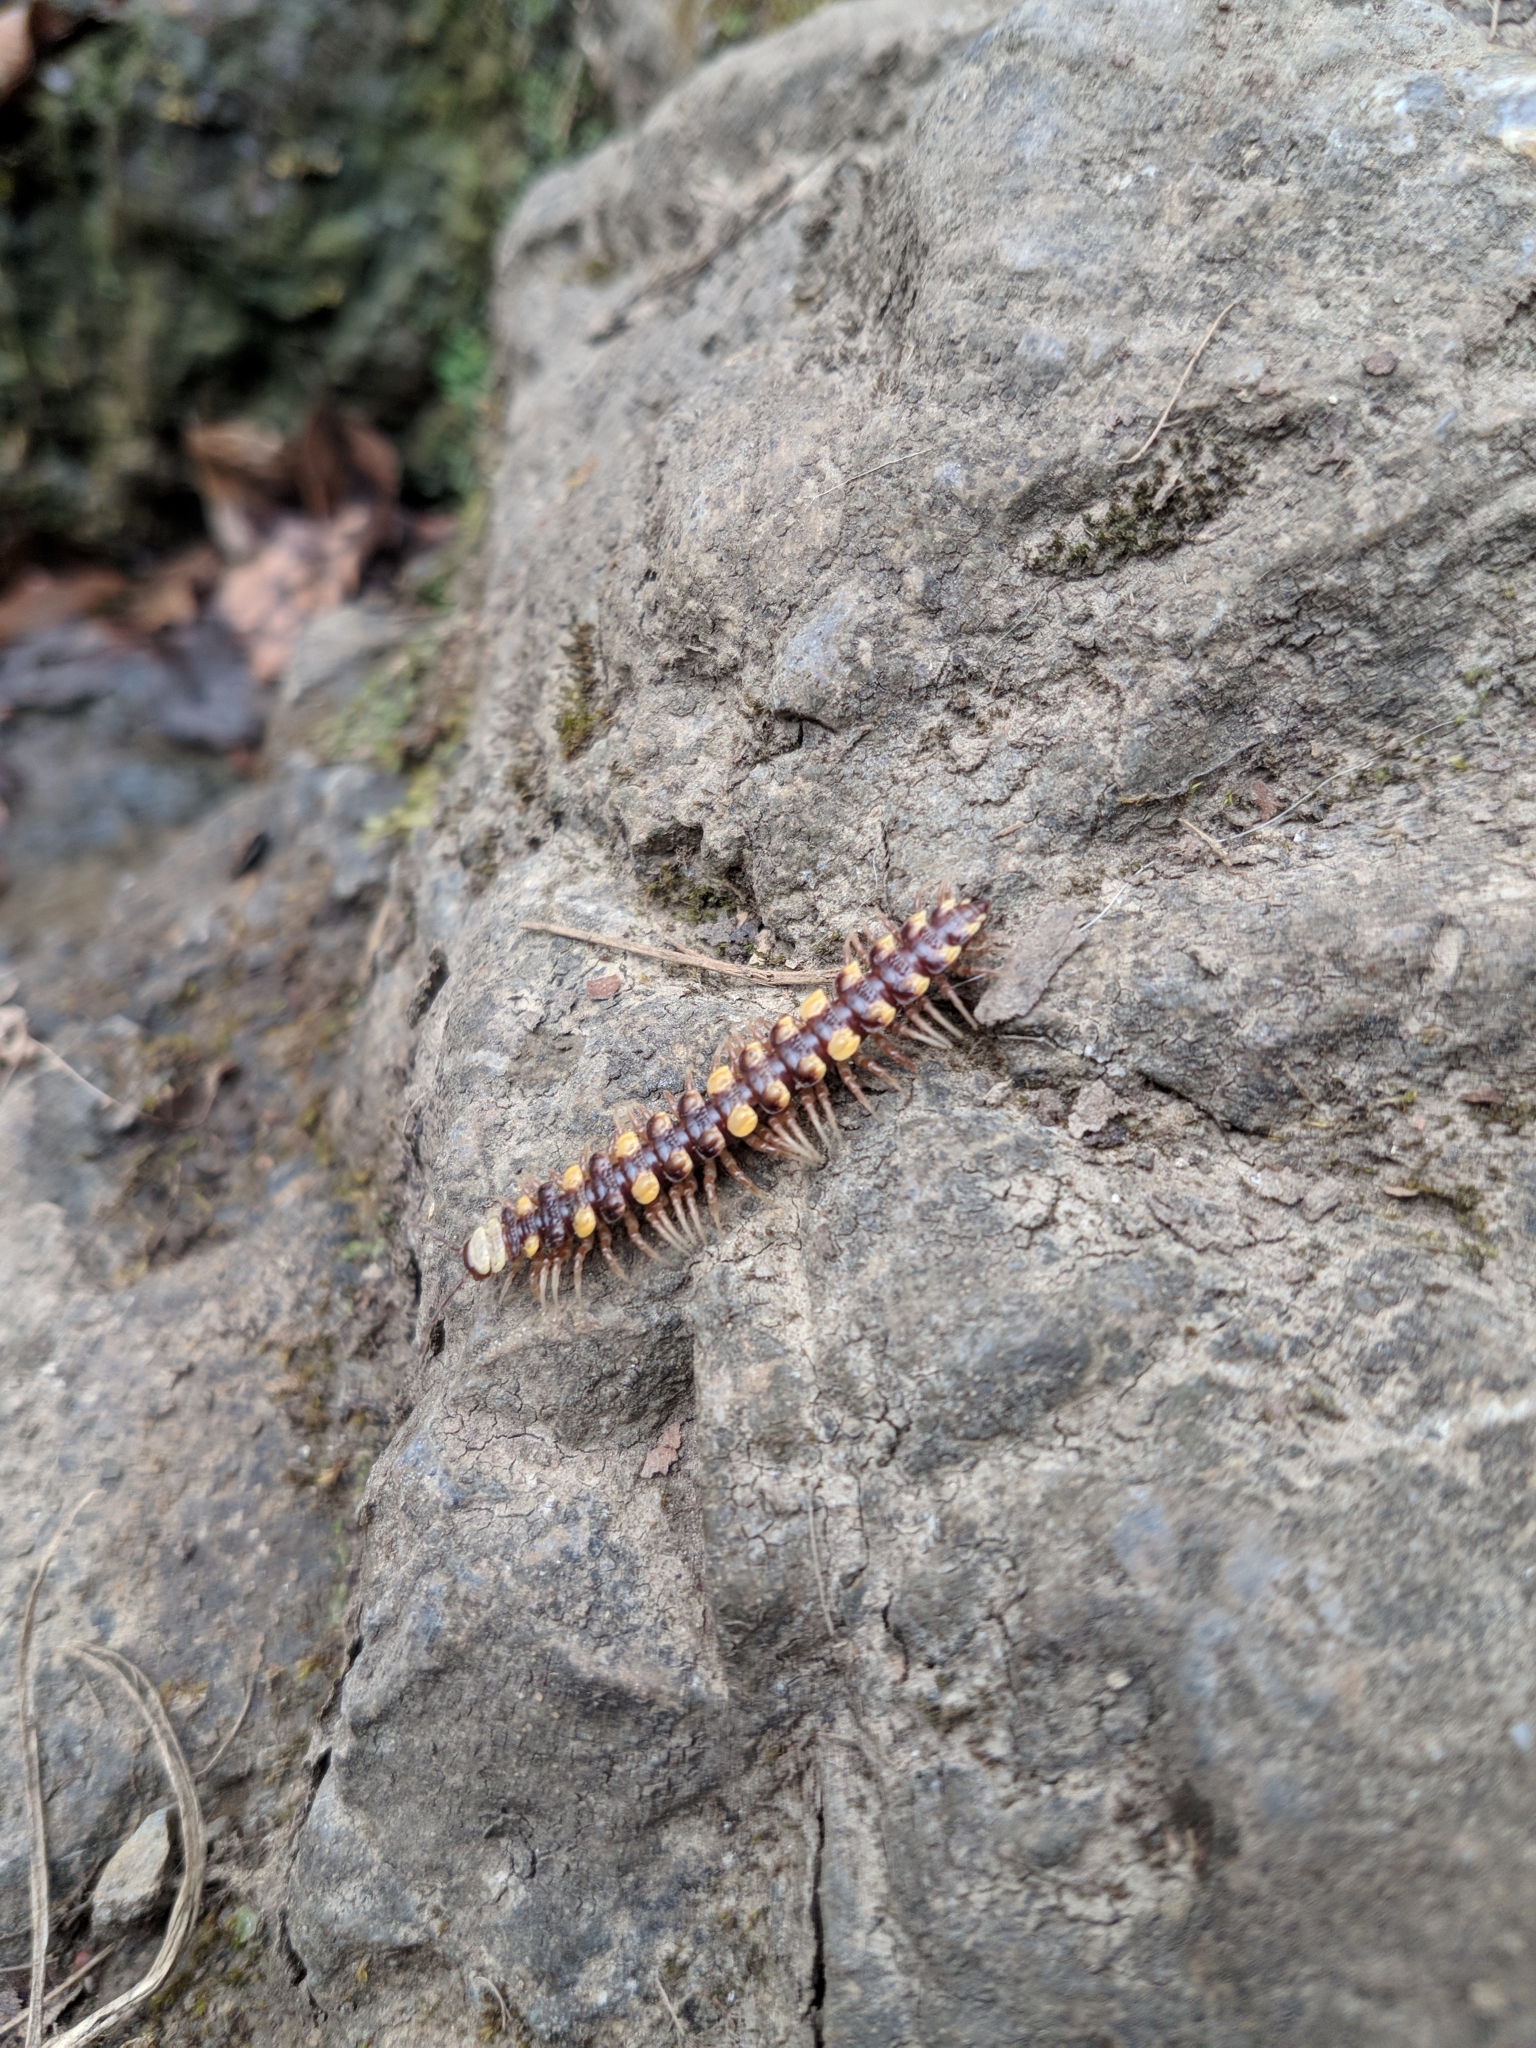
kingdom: Animalia
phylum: Arthropoda
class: Diplopoda
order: Polydesmida
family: Polydesmidae
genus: Polydesmus
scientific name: Polydesmus collaris
